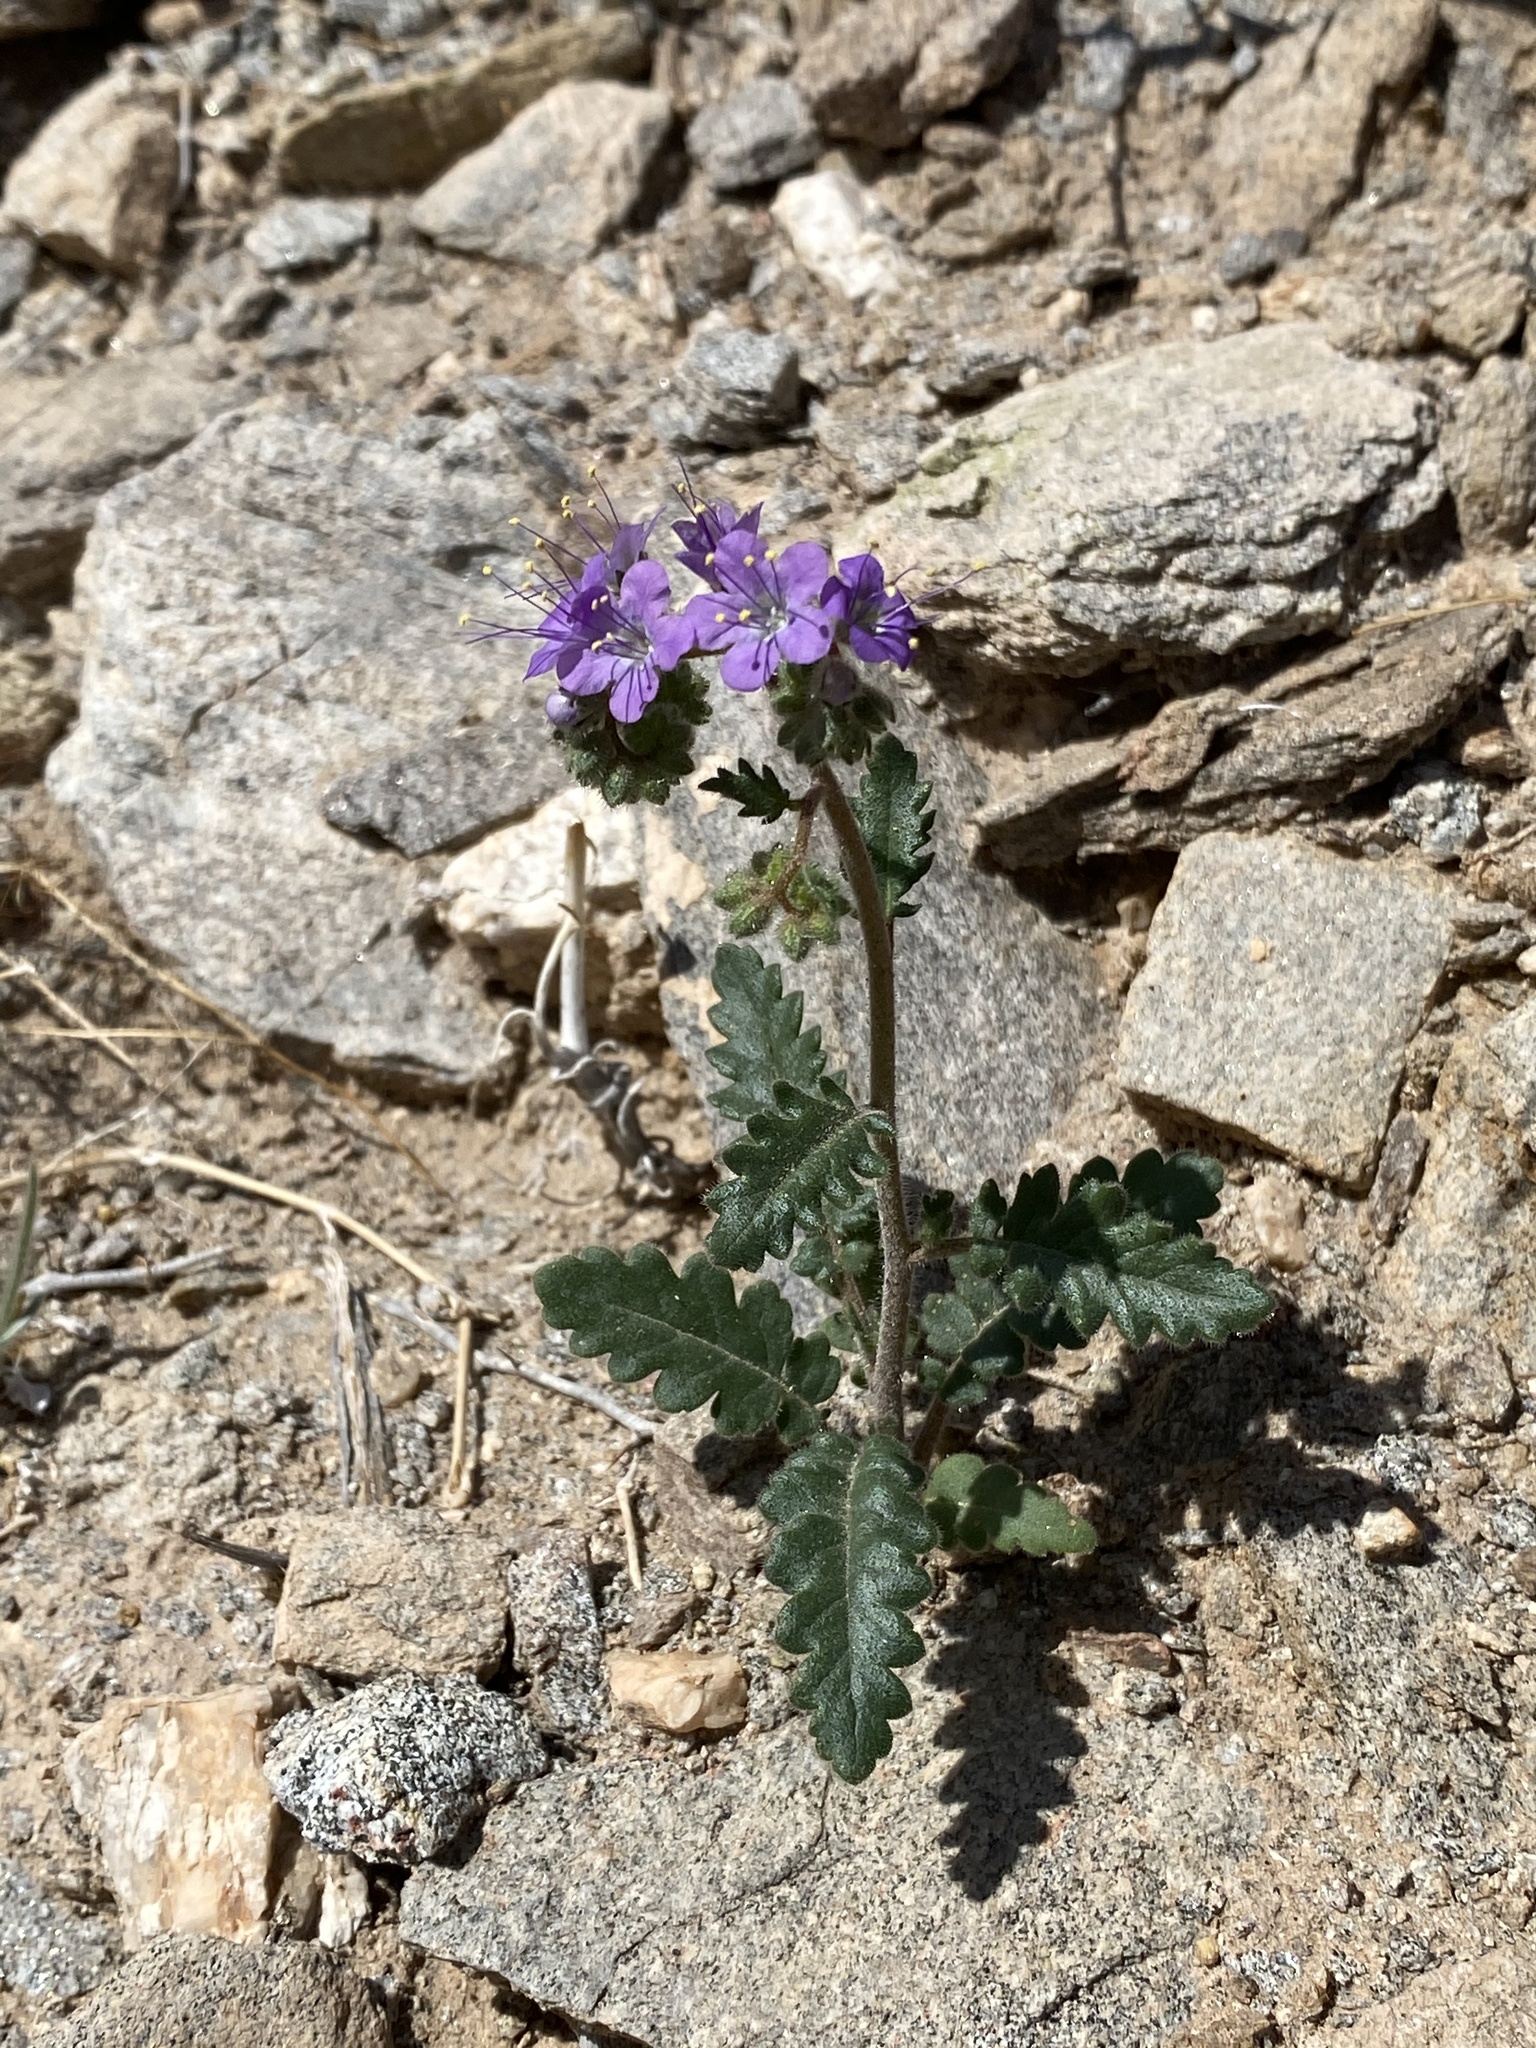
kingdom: Plantae
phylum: Tracheophyta
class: Magnoliopsida
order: Boraginales
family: Hydrophyllaceae
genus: Phacelia
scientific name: Phacelia crenulata
